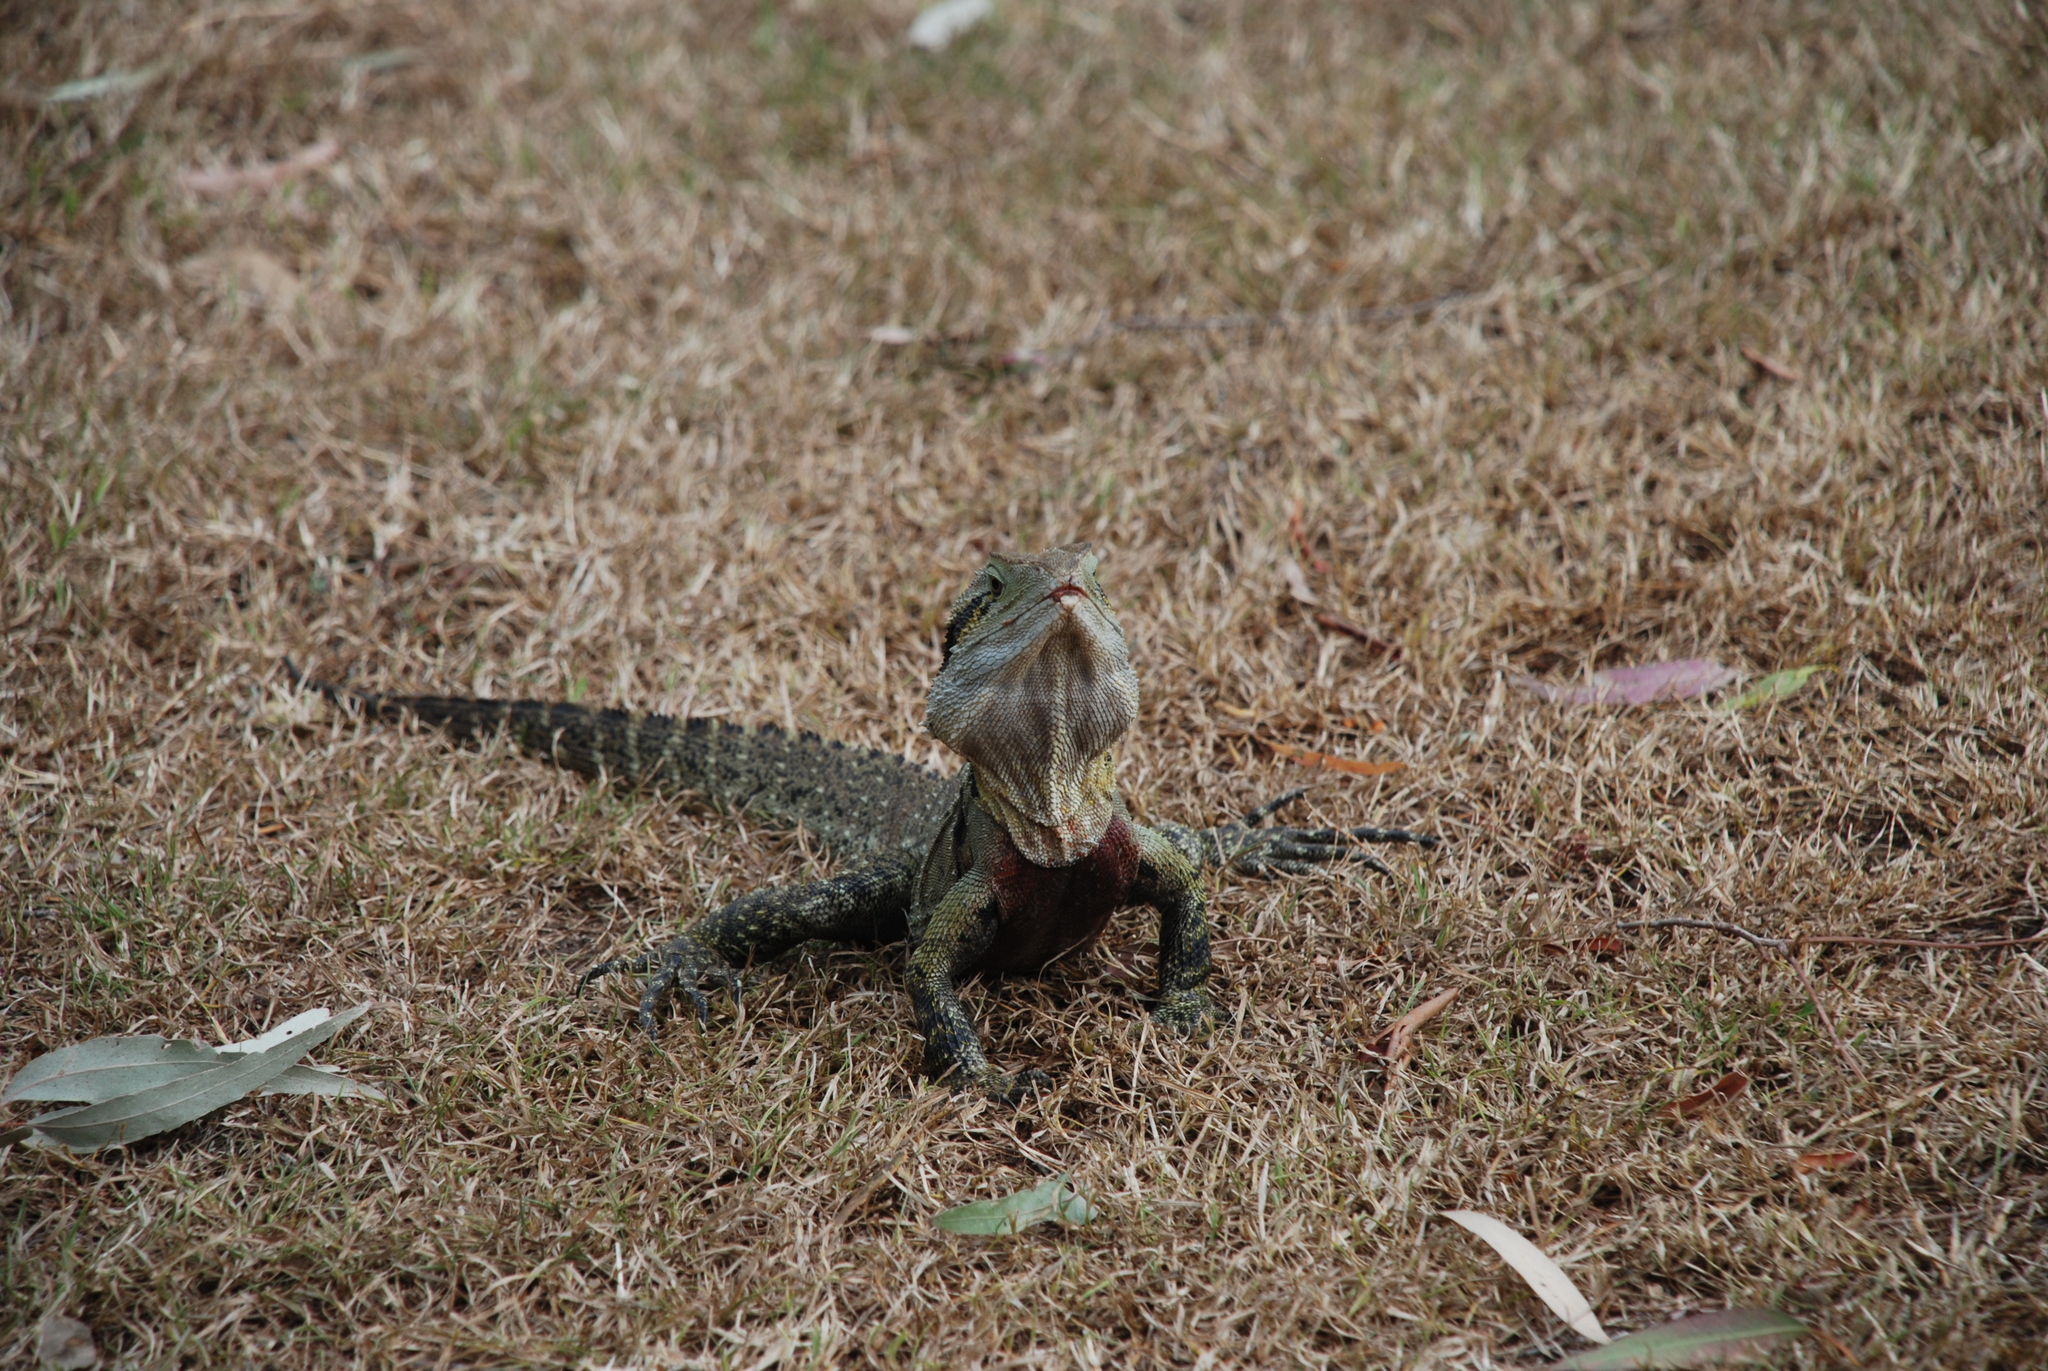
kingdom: Animalia
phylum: Chordata
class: Squamata
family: Agamidae
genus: Intellagama
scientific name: Intellagama lesueurii
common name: Eastern water dragon
